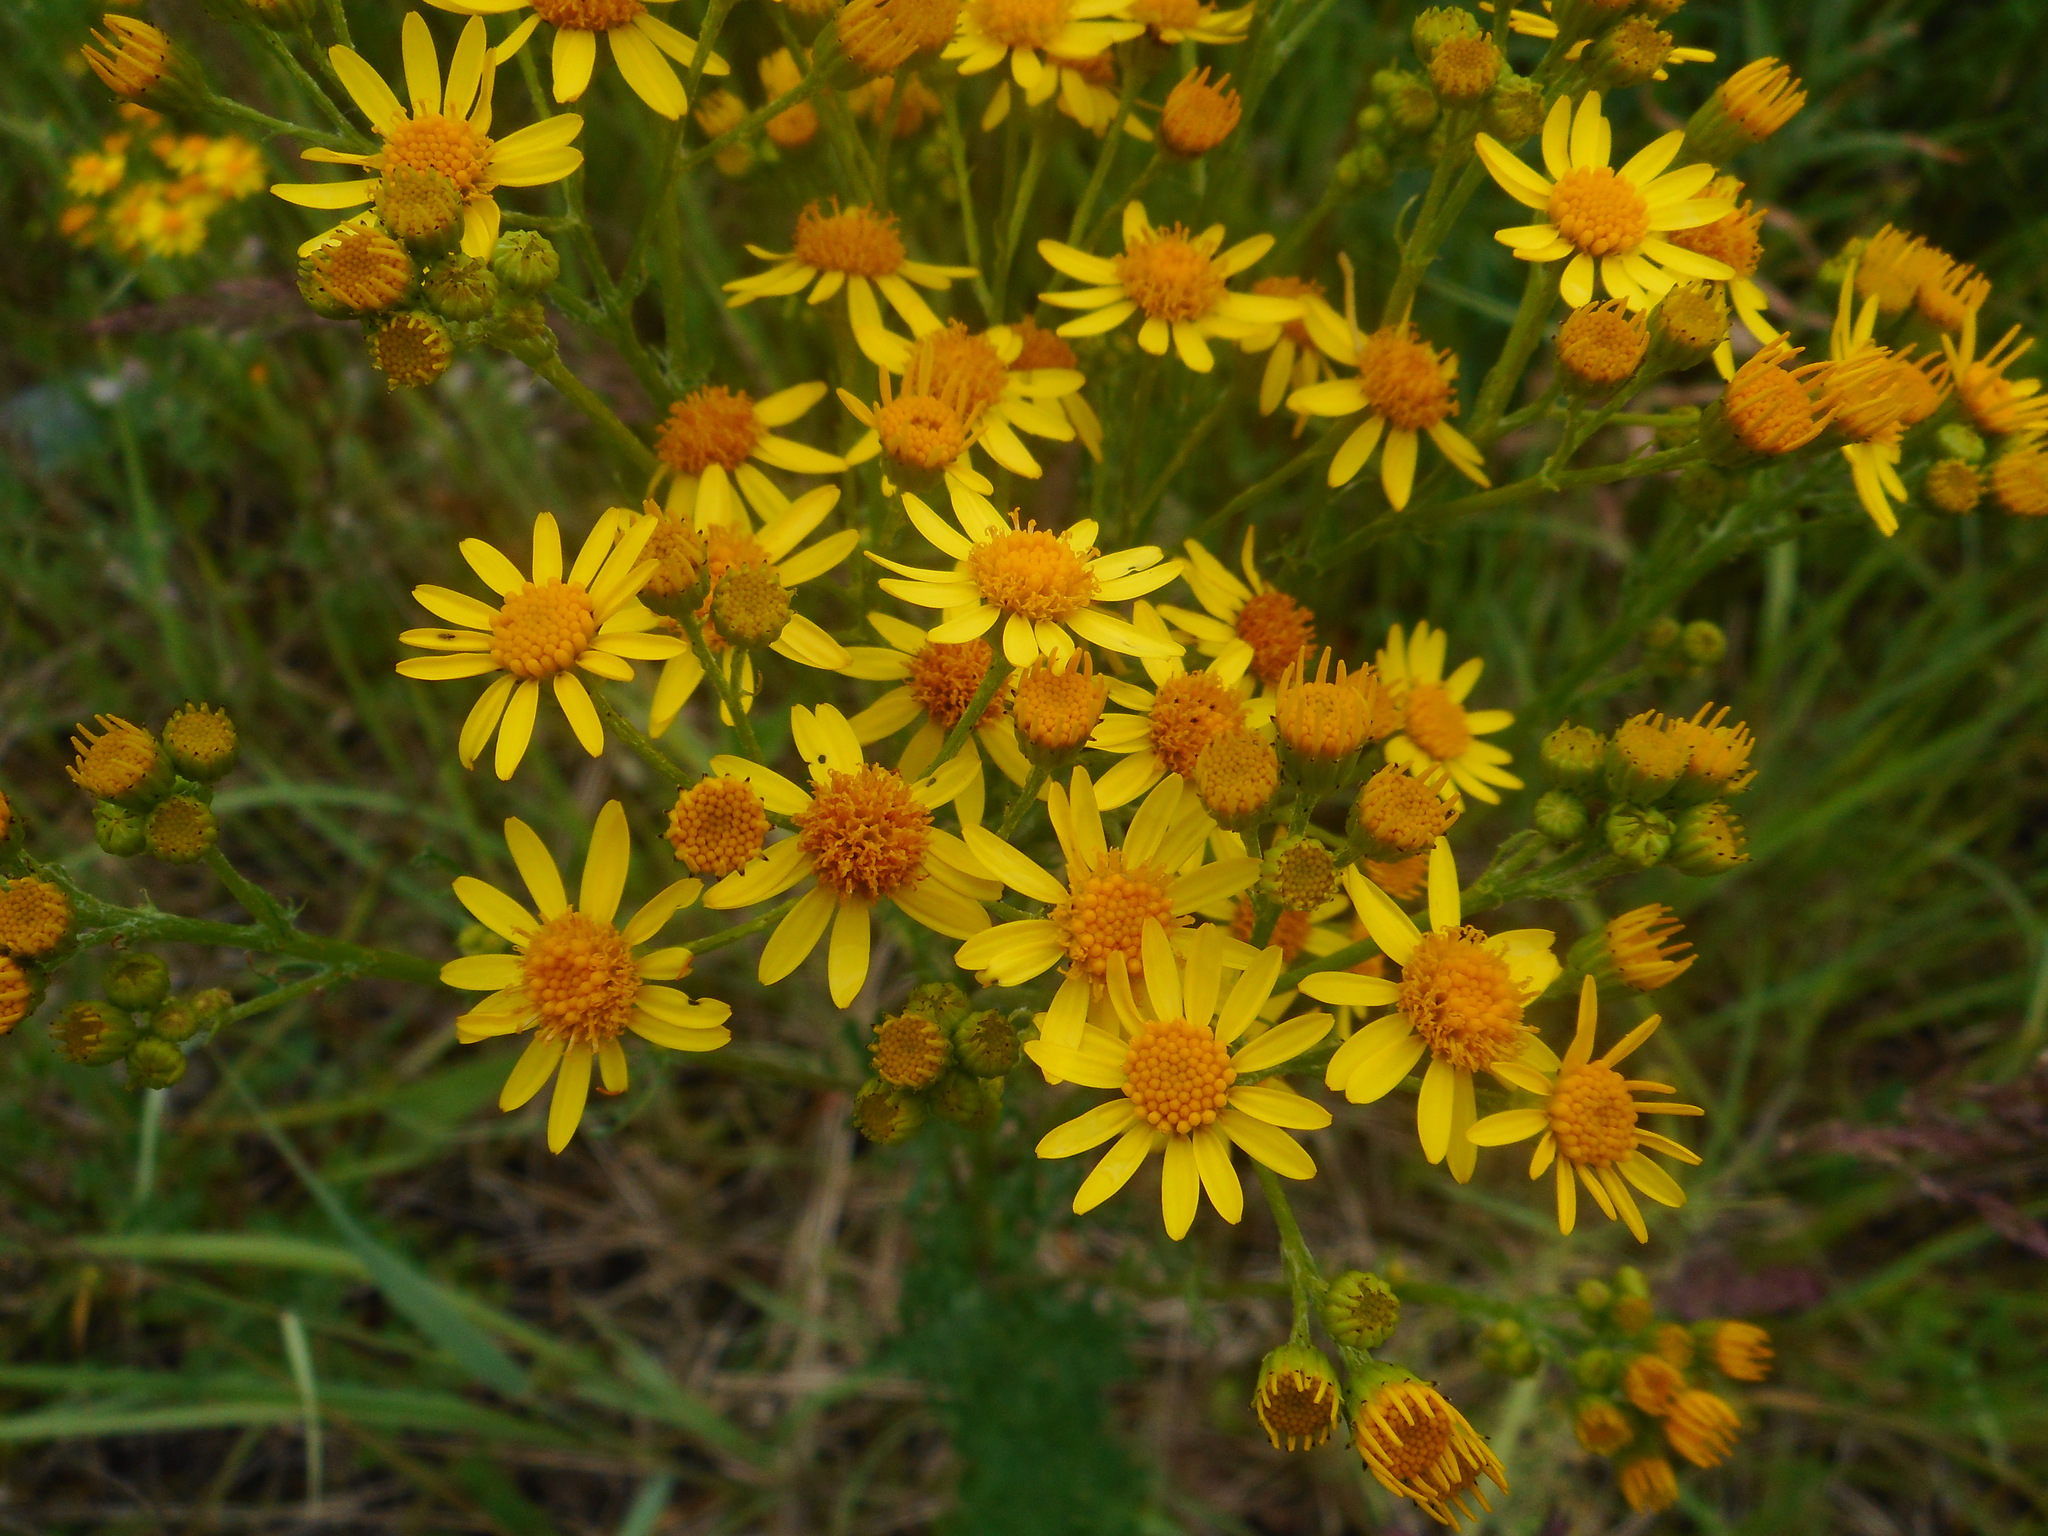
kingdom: Plantae
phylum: Tracheophyta
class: Magnoliopsida
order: Asterales
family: Asteraceae
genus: Jacobaea
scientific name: Jacobaea vulgaris
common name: Stinking willie
